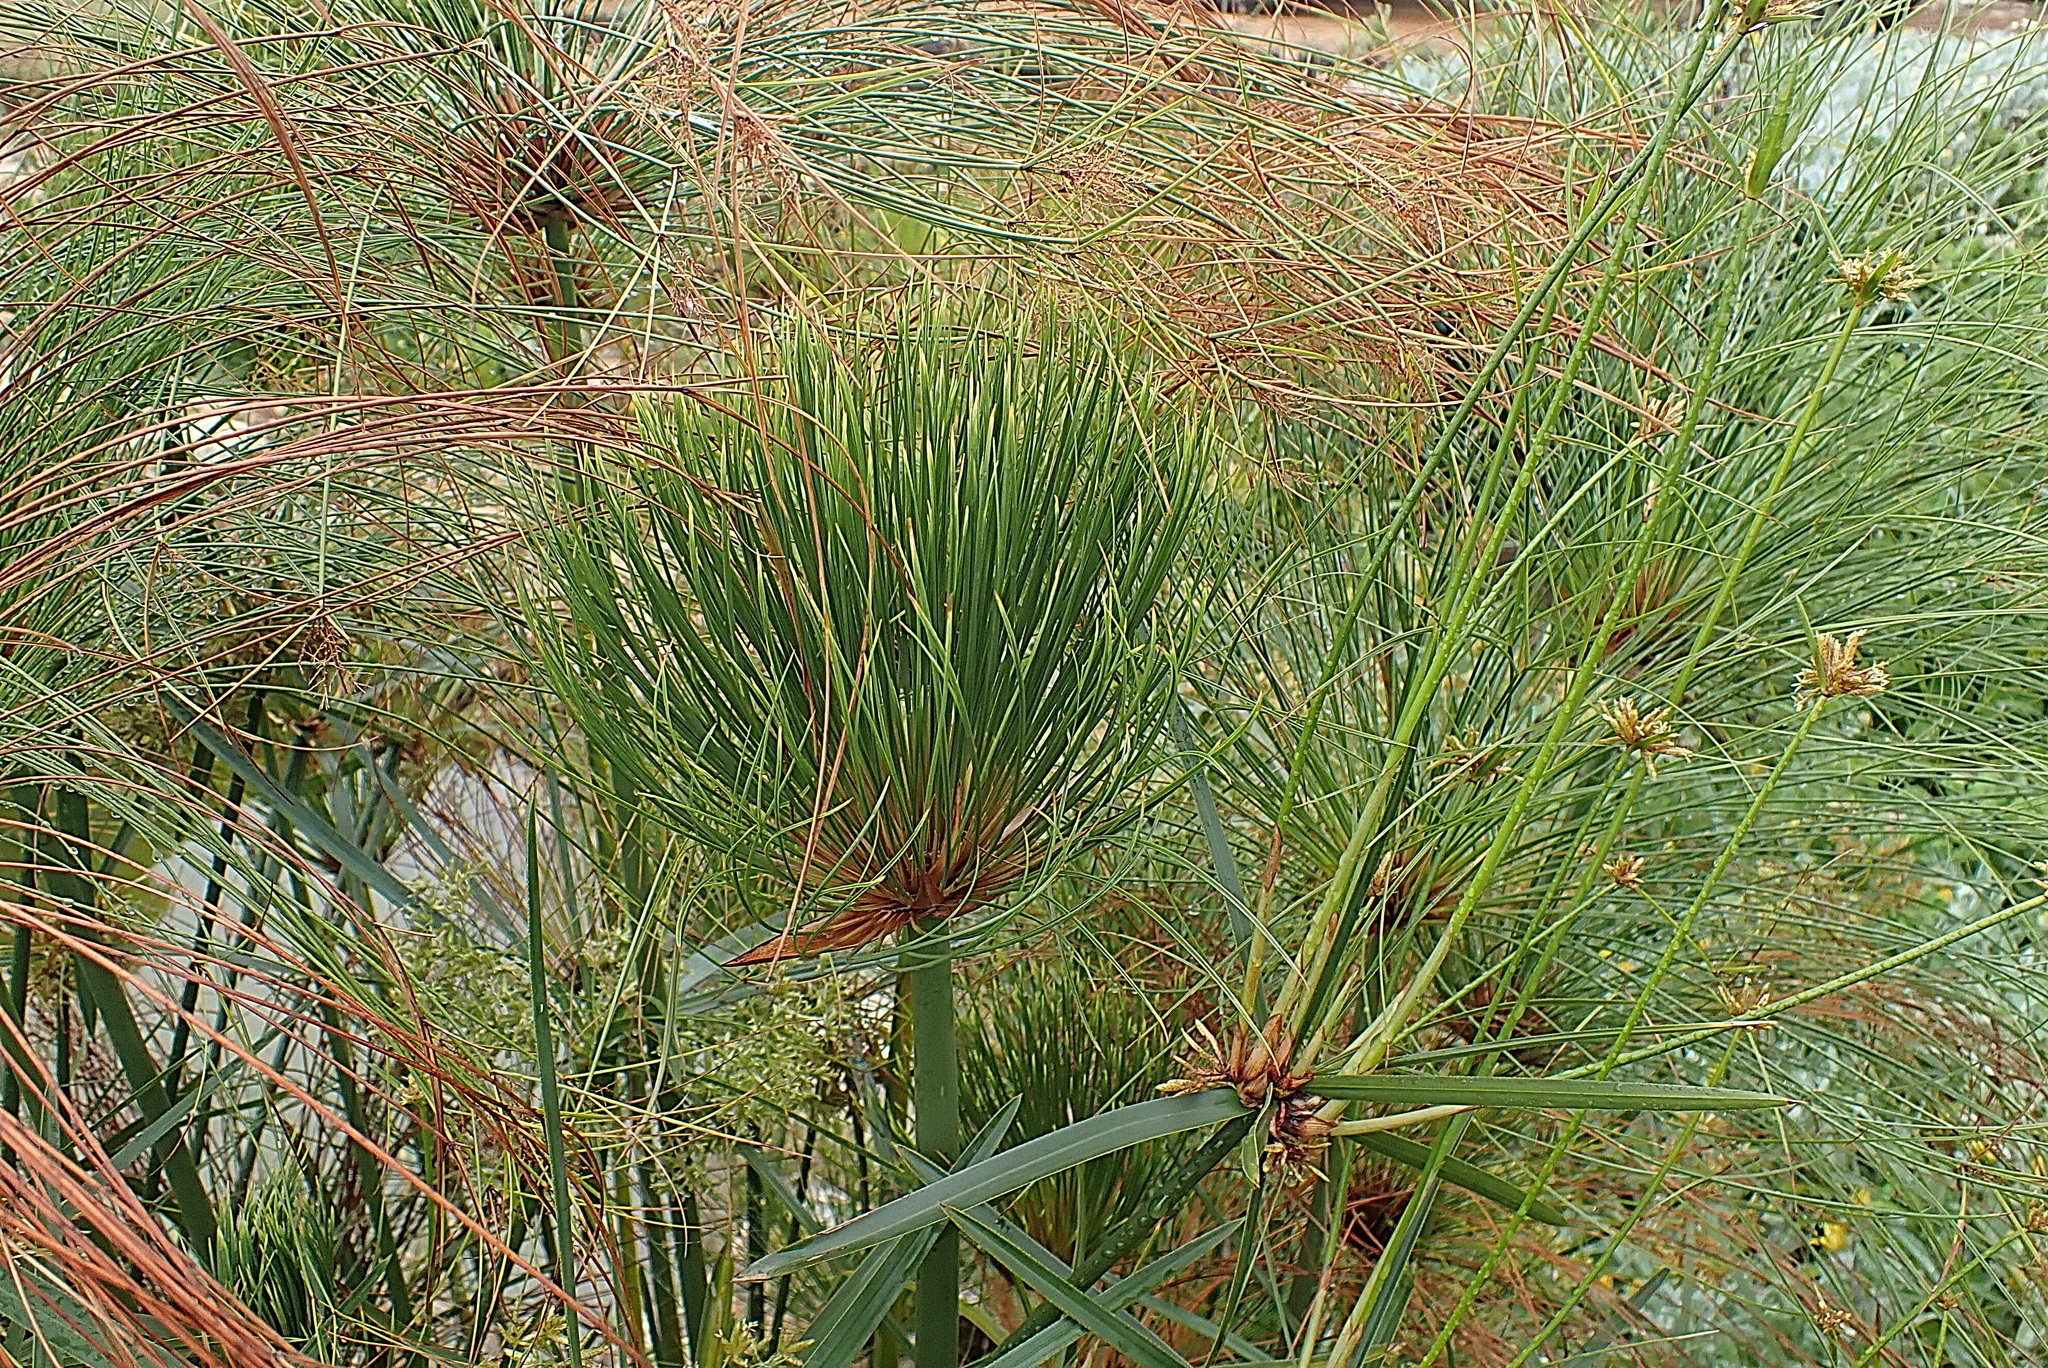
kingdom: Plantae
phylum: Tracheophyta
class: Liliopsida
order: Poales
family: Cyperaceae
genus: Cyperus
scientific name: Cyperus papyrus
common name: Papyrus
